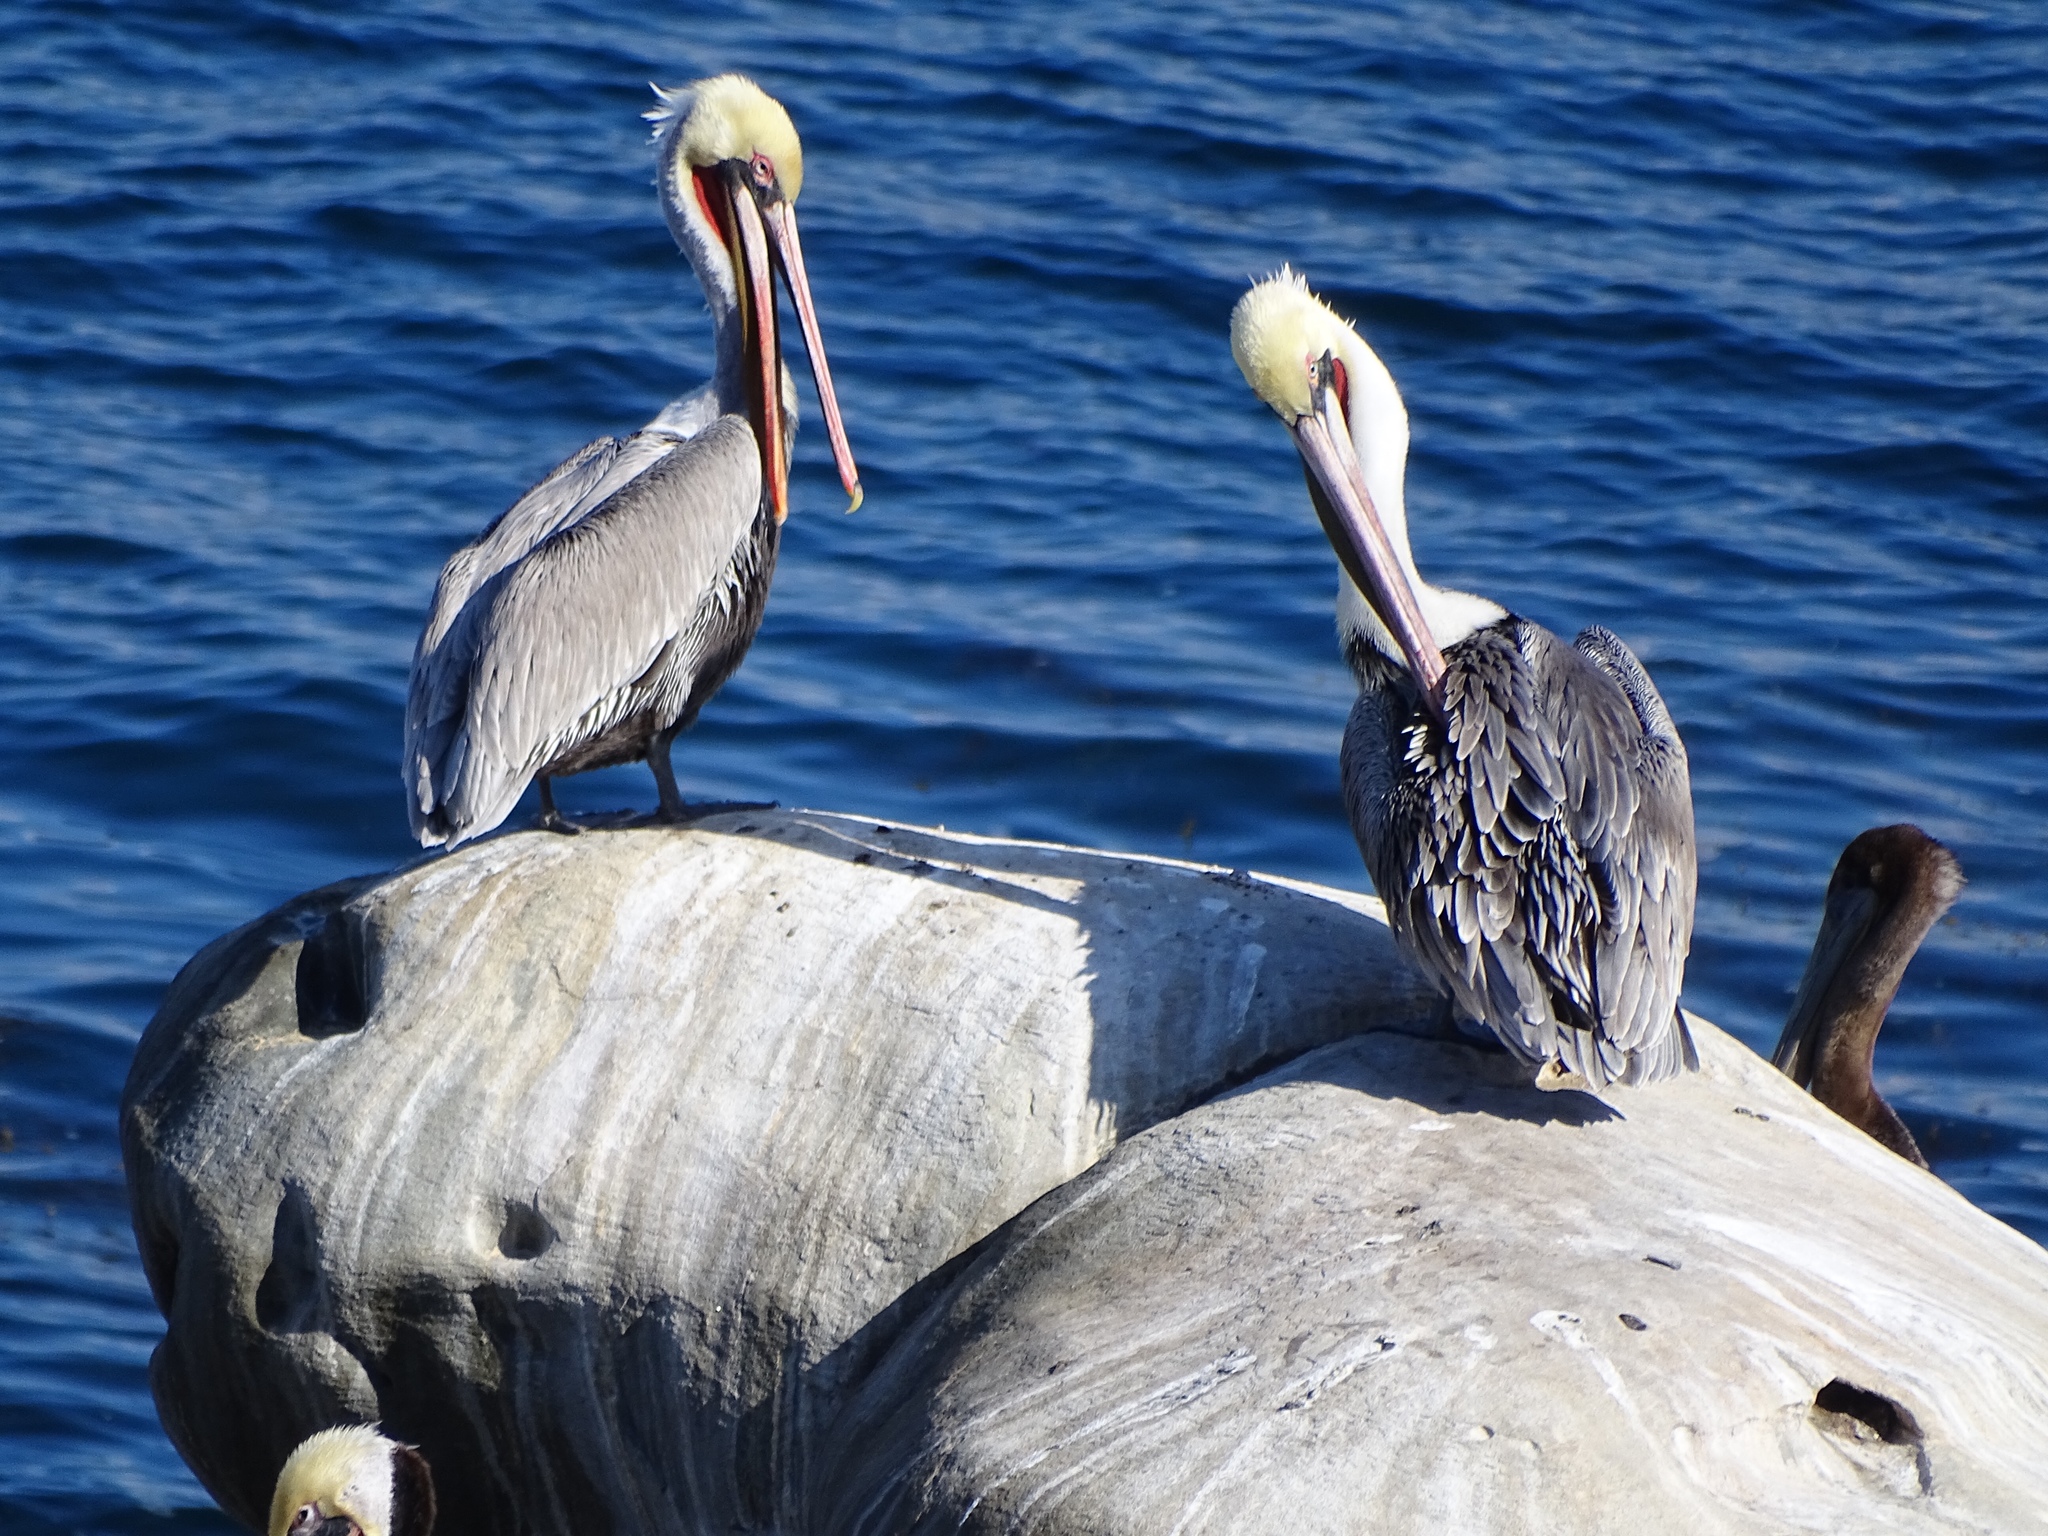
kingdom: Animalia
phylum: Chordata
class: Aves
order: Pelecaniformes
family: Pelecanidae
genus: Pelecanus
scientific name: Pelecanus occidentalis
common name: Brown pelican
